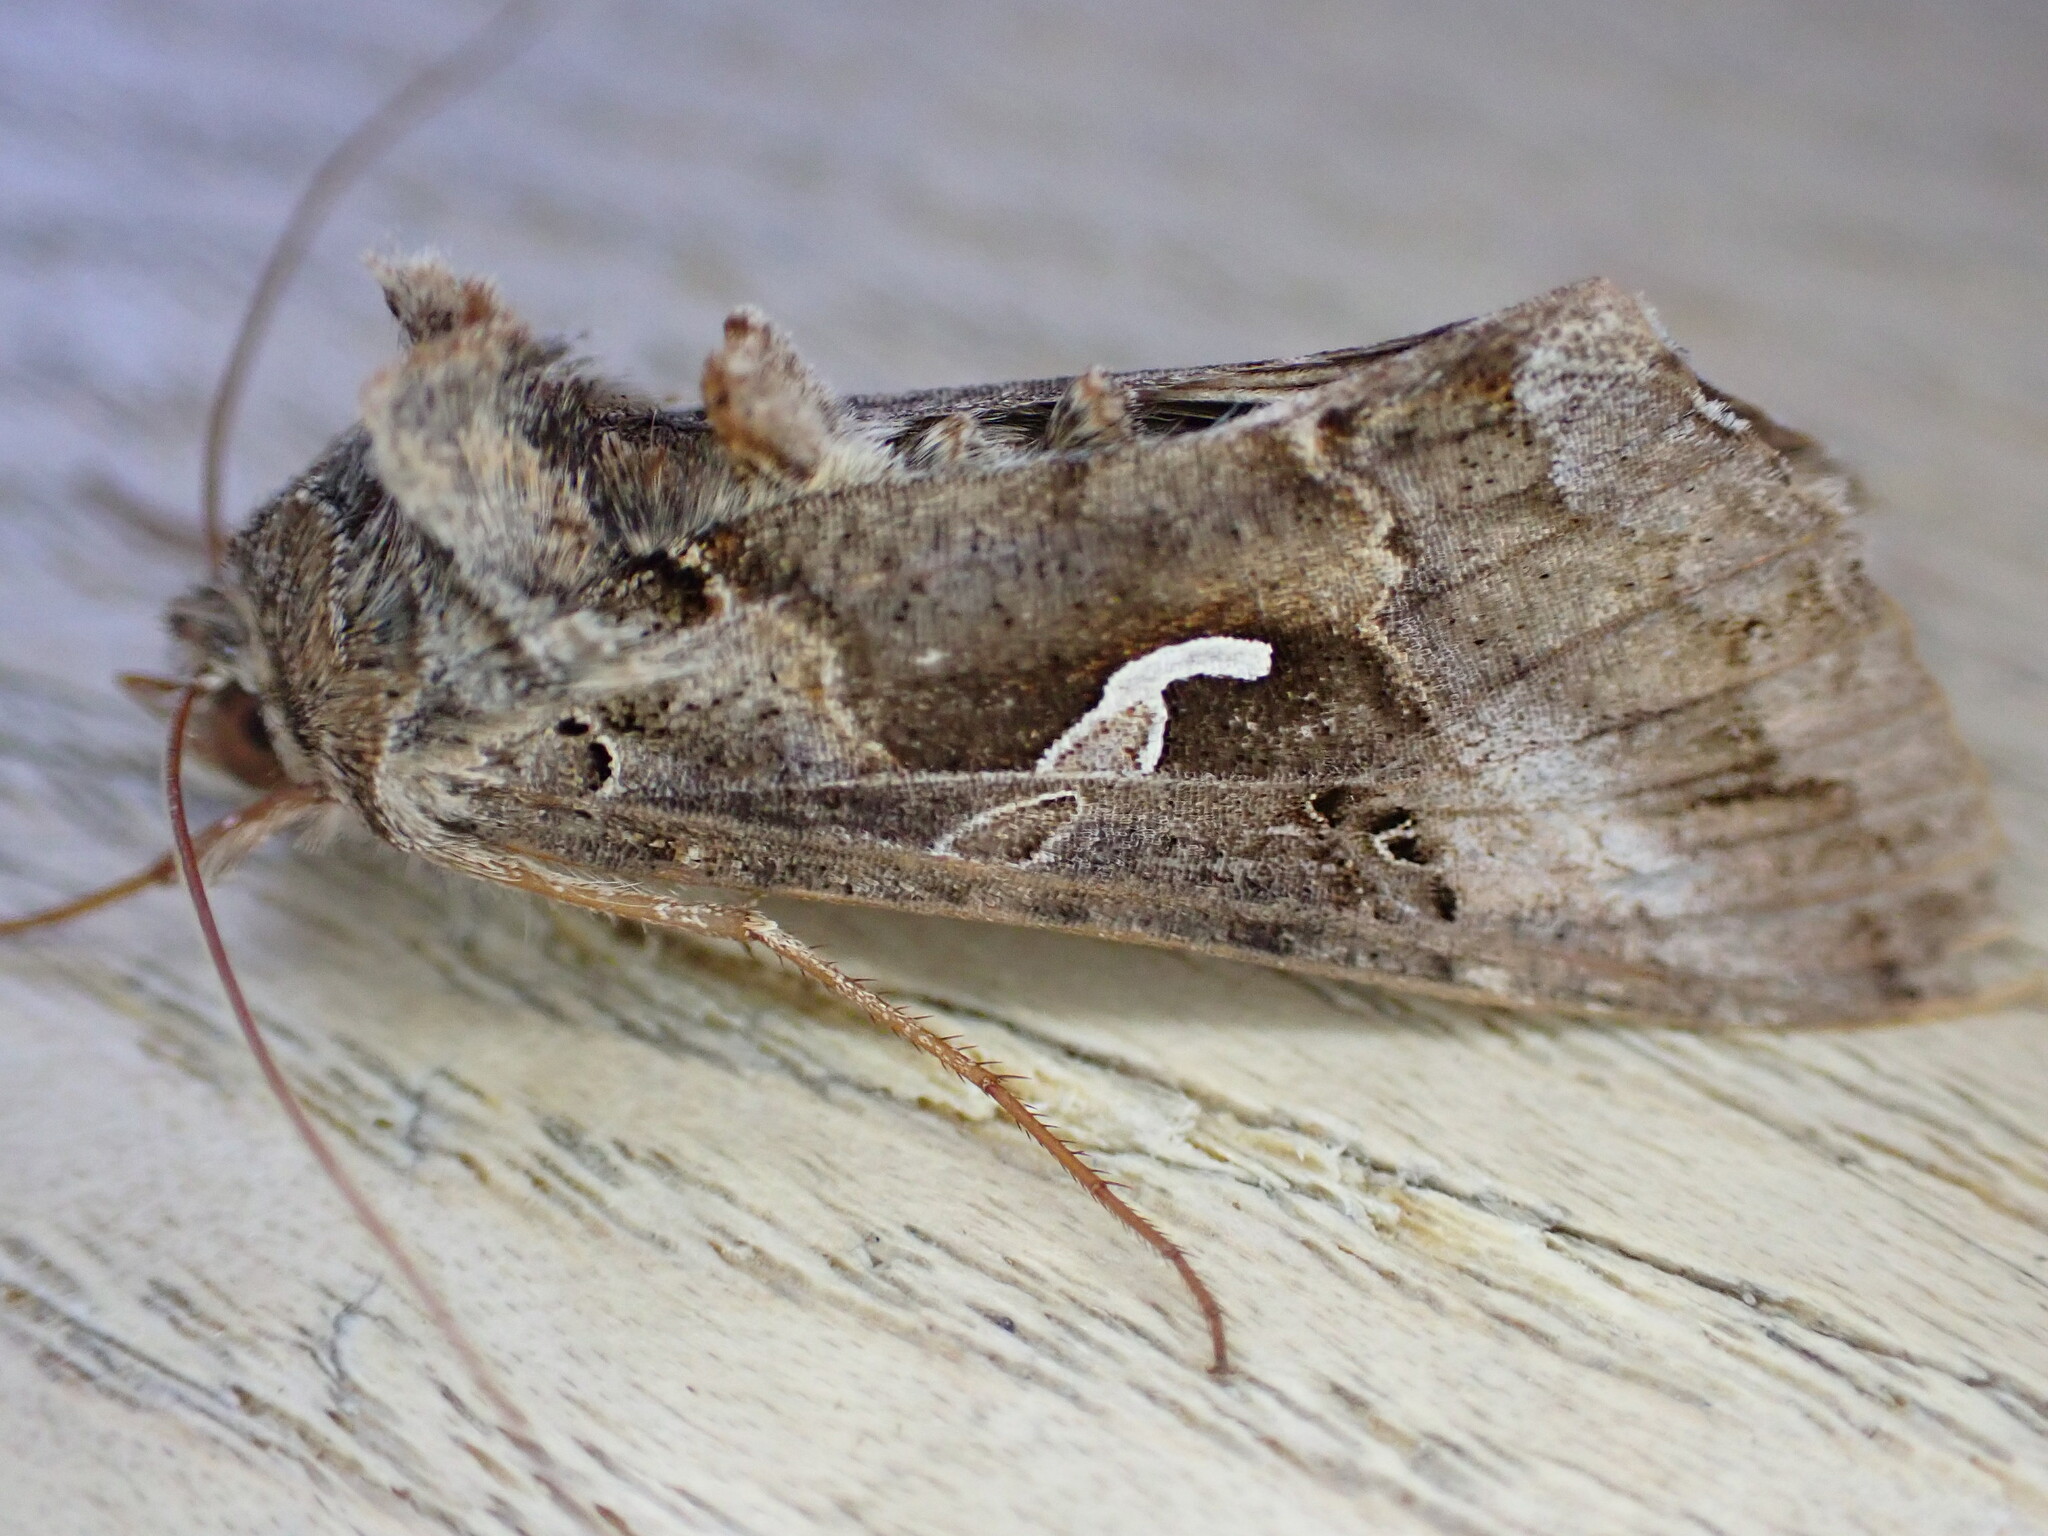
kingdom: Animalia
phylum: Arthropoda
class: Insecta
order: Lepidoptera
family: Noctuidae
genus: Autographa
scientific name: Autographa gamma
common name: Silver y
